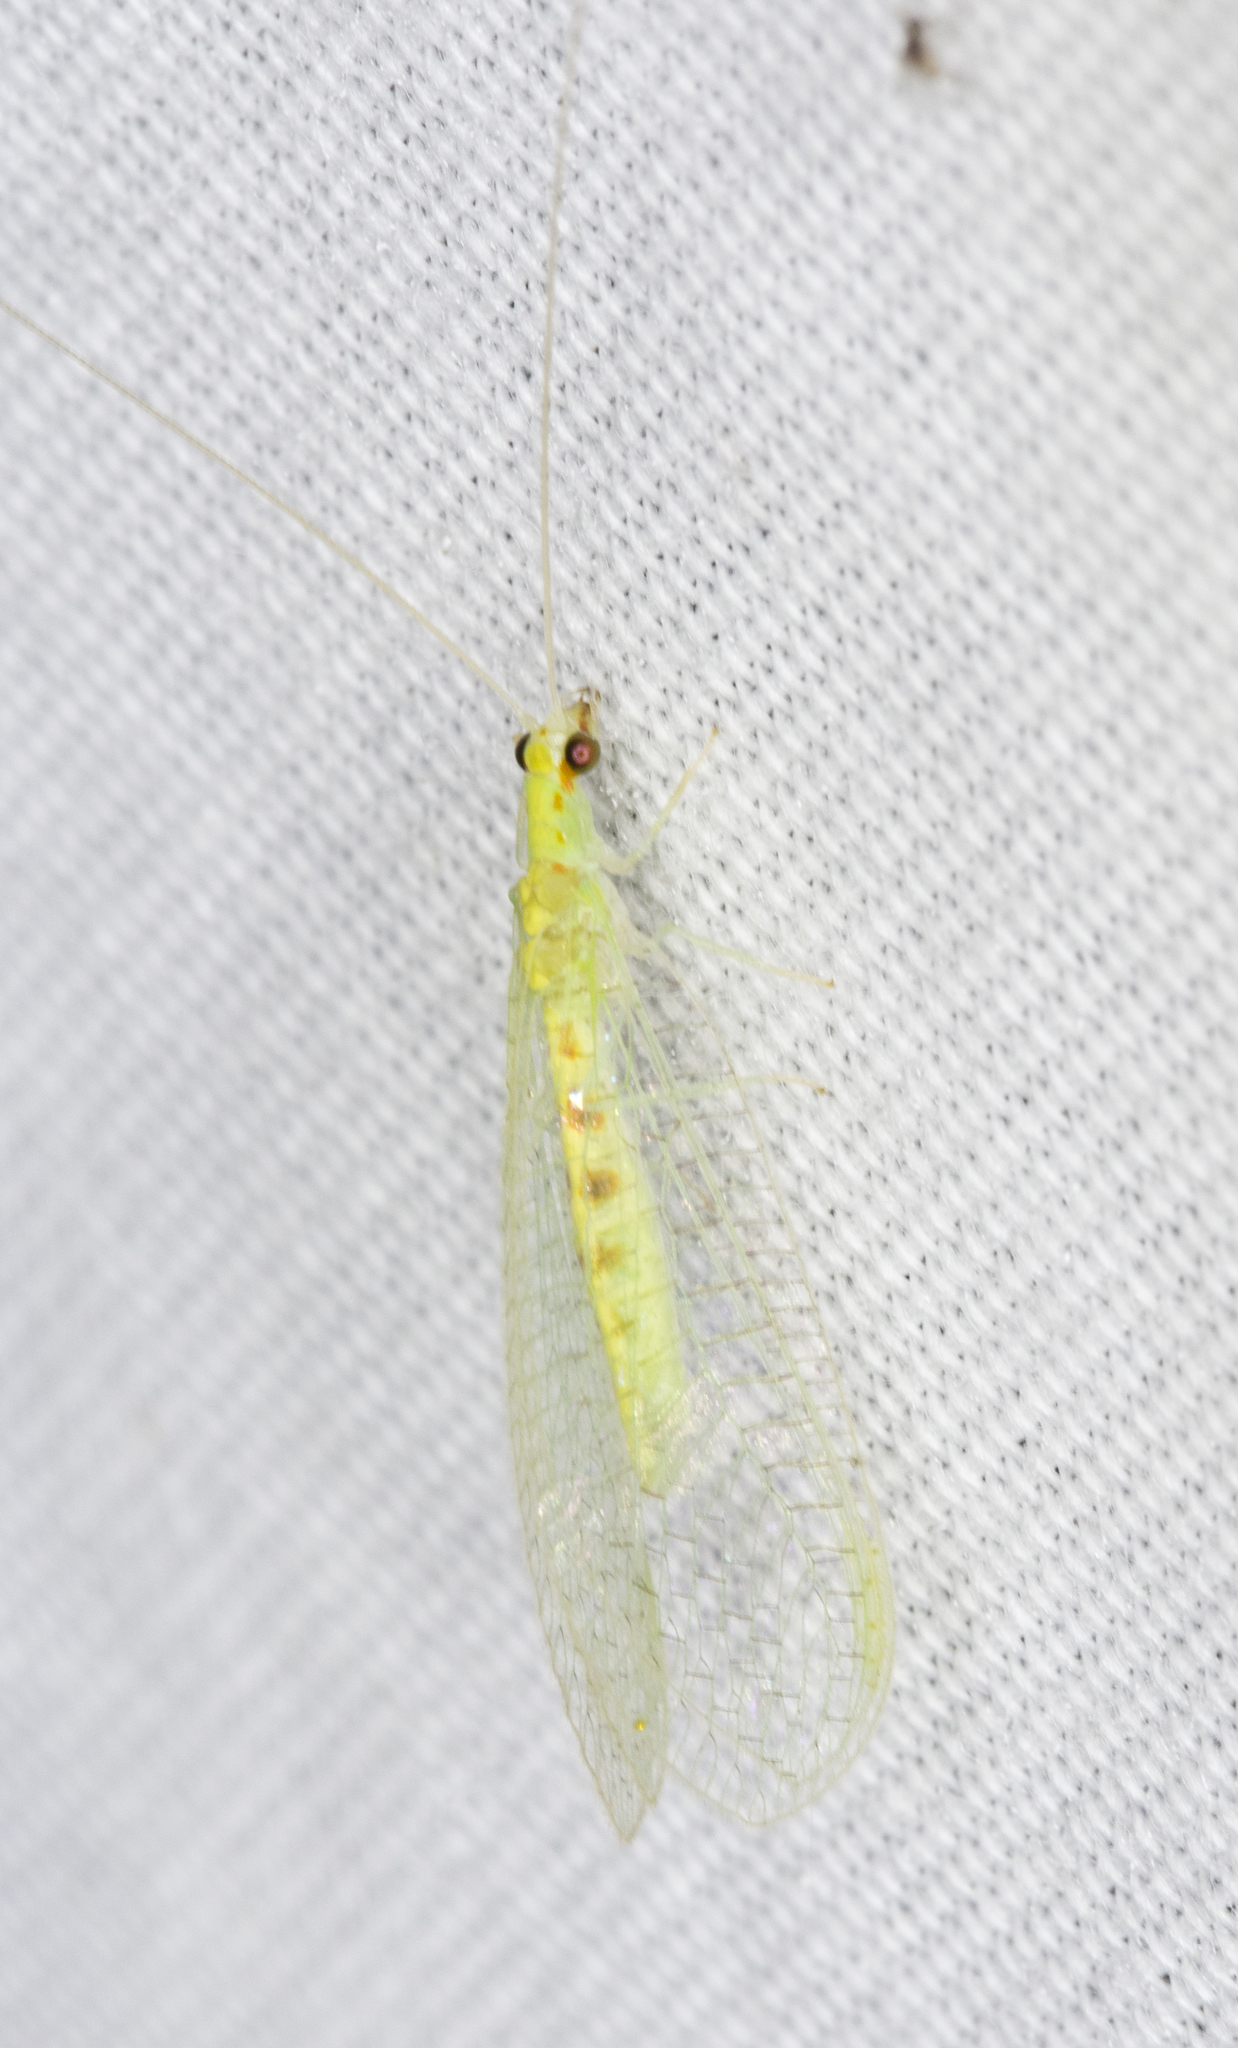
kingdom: Animalia
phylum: Arthropoda
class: Insecta
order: Neuroptera
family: Chrysopidae
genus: Chrysopa
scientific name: Chrysopa quadripunctata
